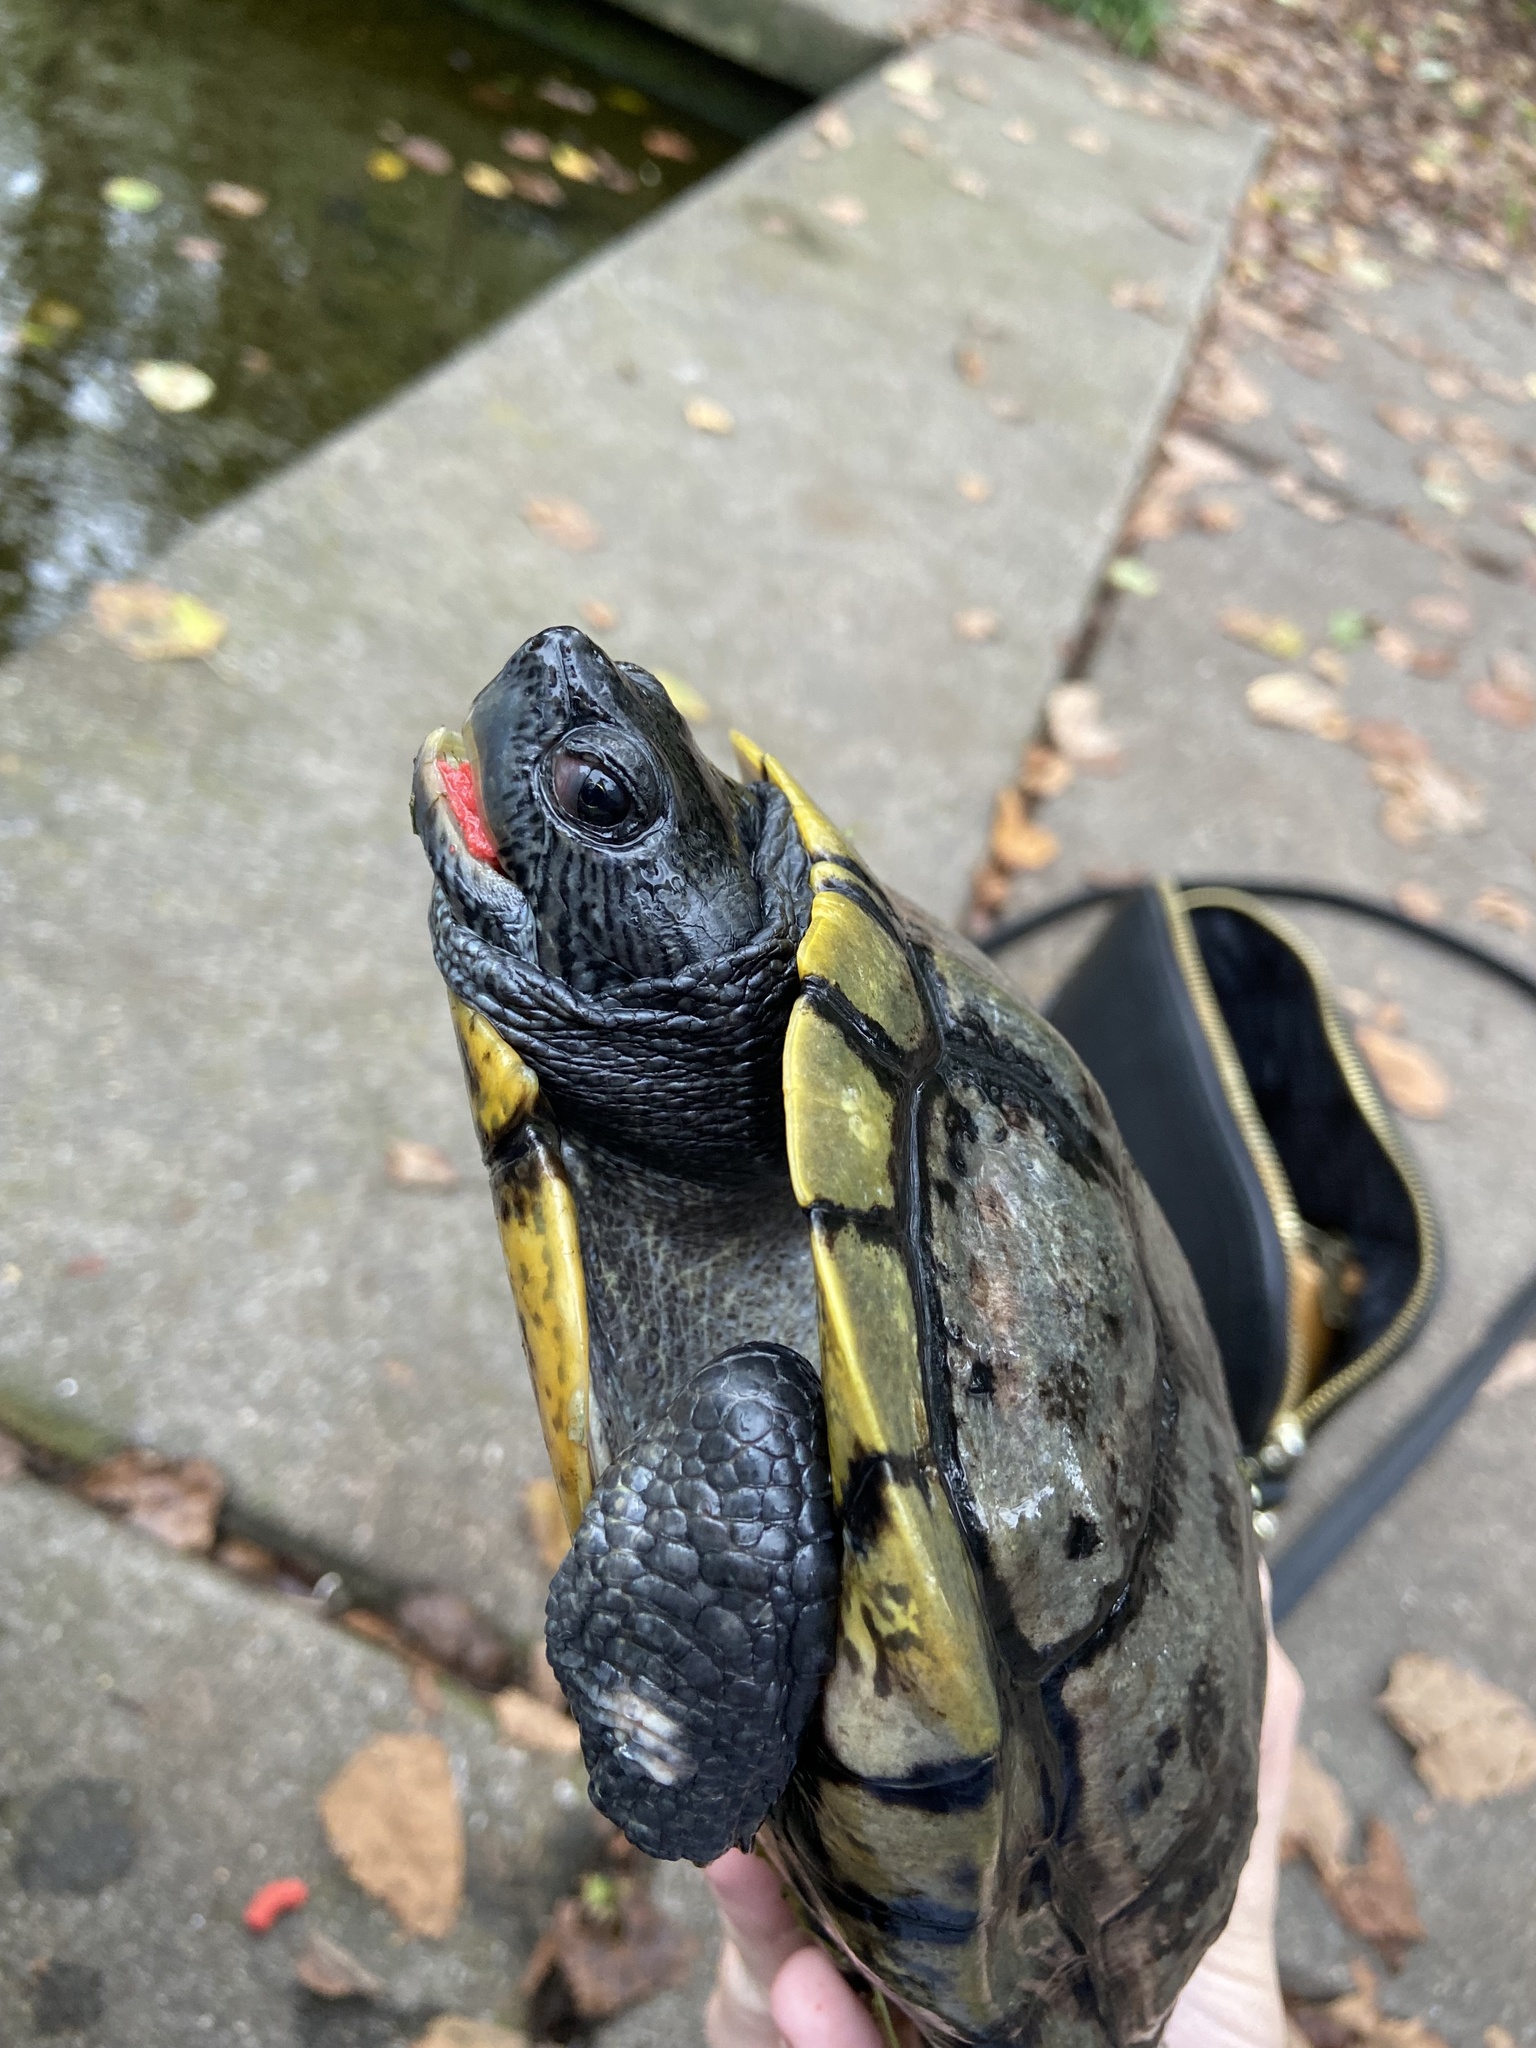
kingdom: Animalia
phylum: Chordata
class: Testudines
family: Emydidae
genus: Trachemys
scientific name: Trachemys scripta
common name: Slider
